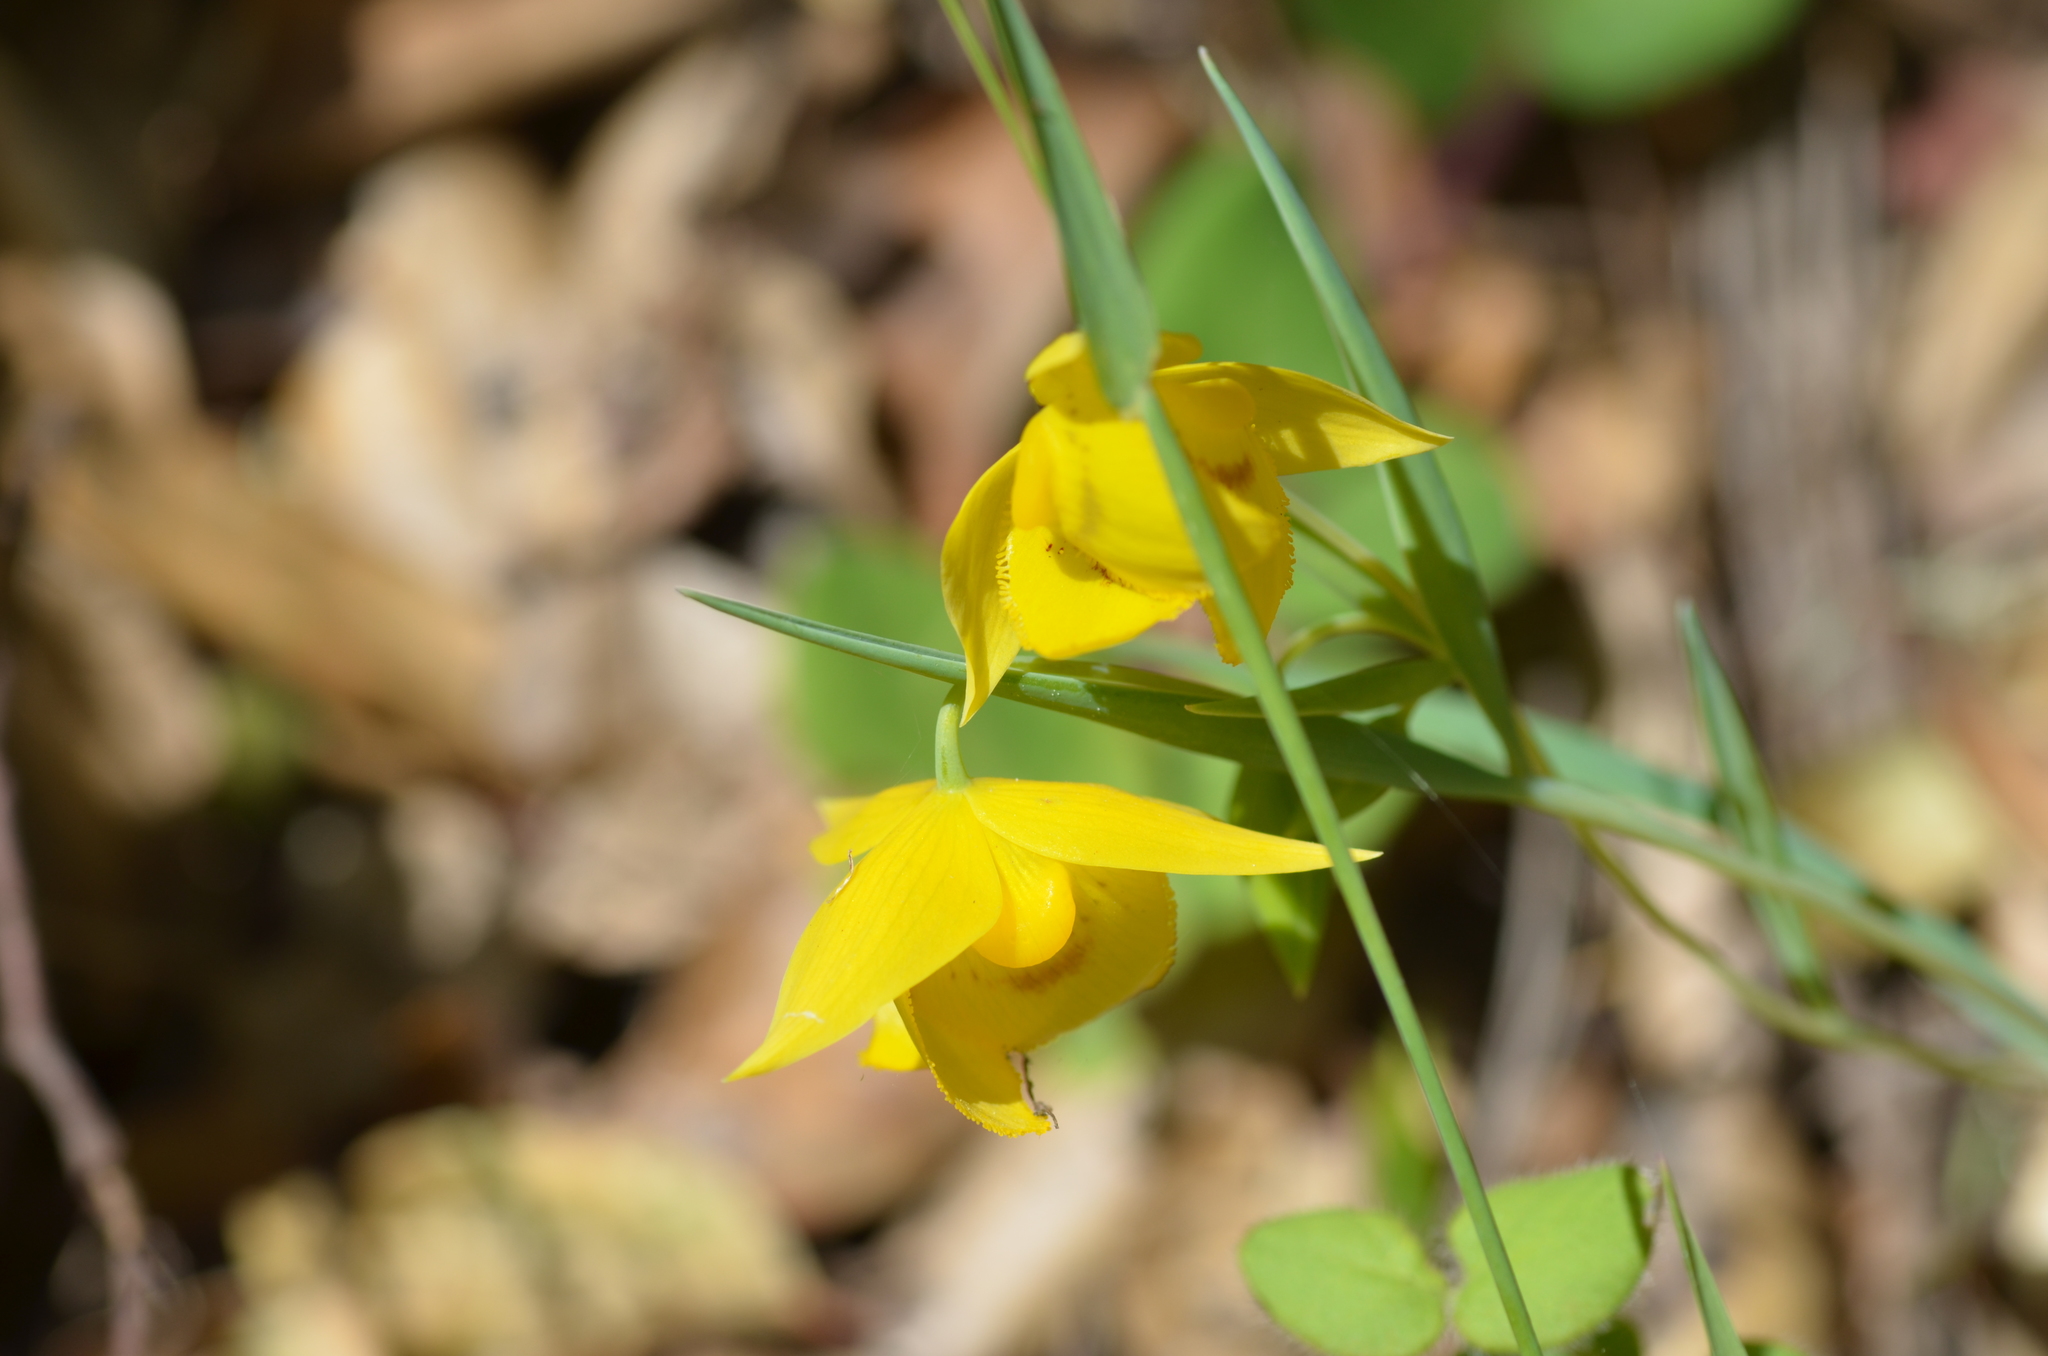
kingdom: Plantae
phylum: Tracheophyta
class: Liliopsida
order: Liliales
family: Liliaceae
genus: Calochortus
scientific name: Calochortus amabilis
